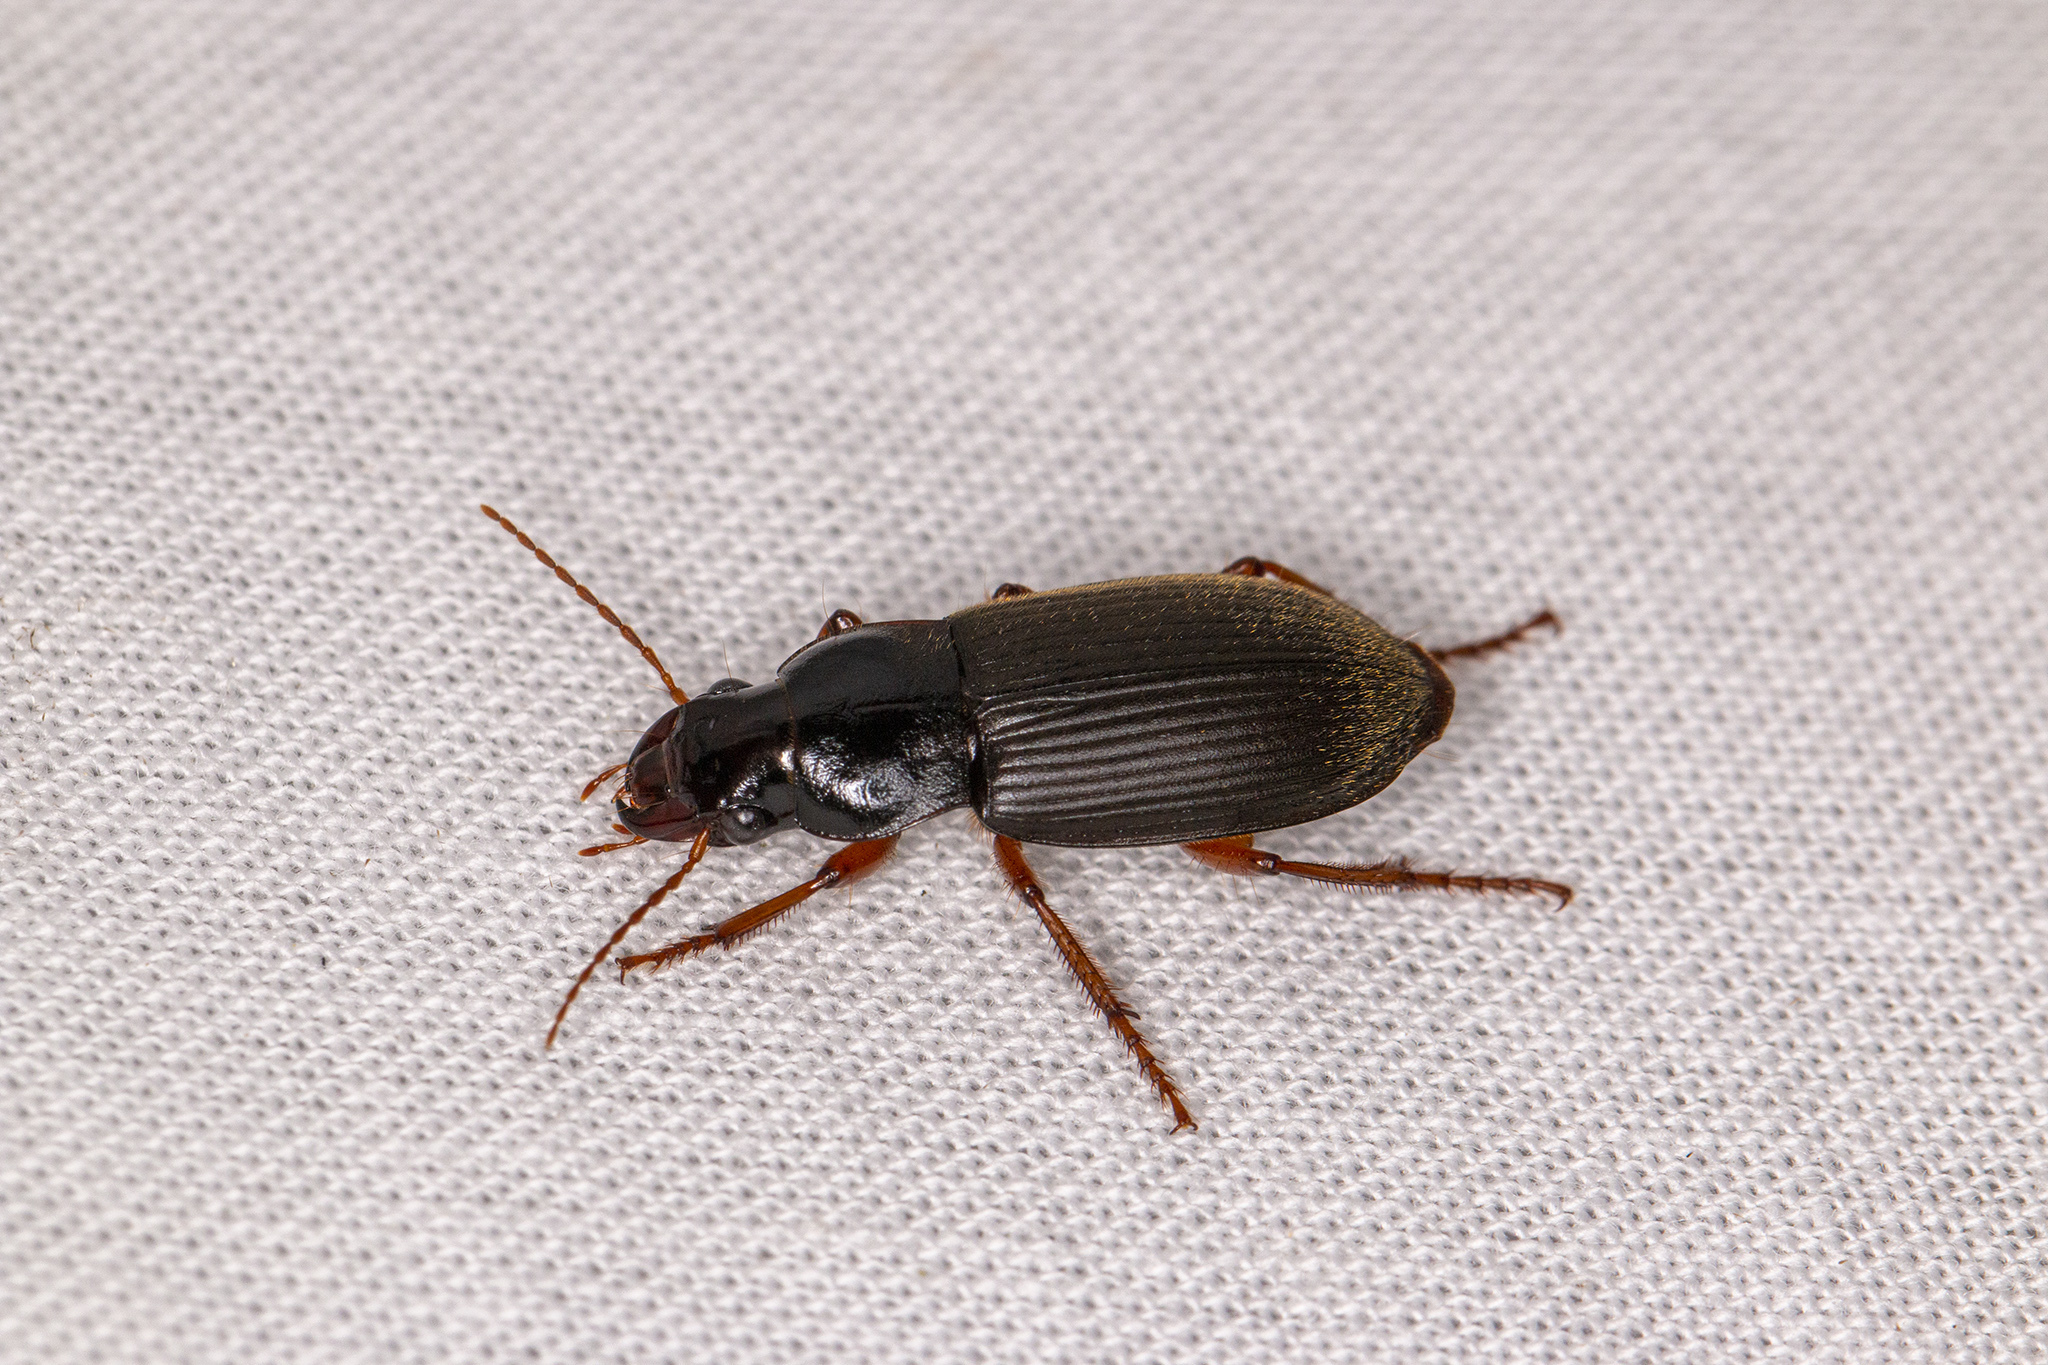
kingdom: Animalia
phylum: Arthropoda
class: Insecta
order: Coleoptera
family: Carabidae
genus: Harpalus
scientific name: Harpalus rufipes
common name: Strawberry harp ground beetle
